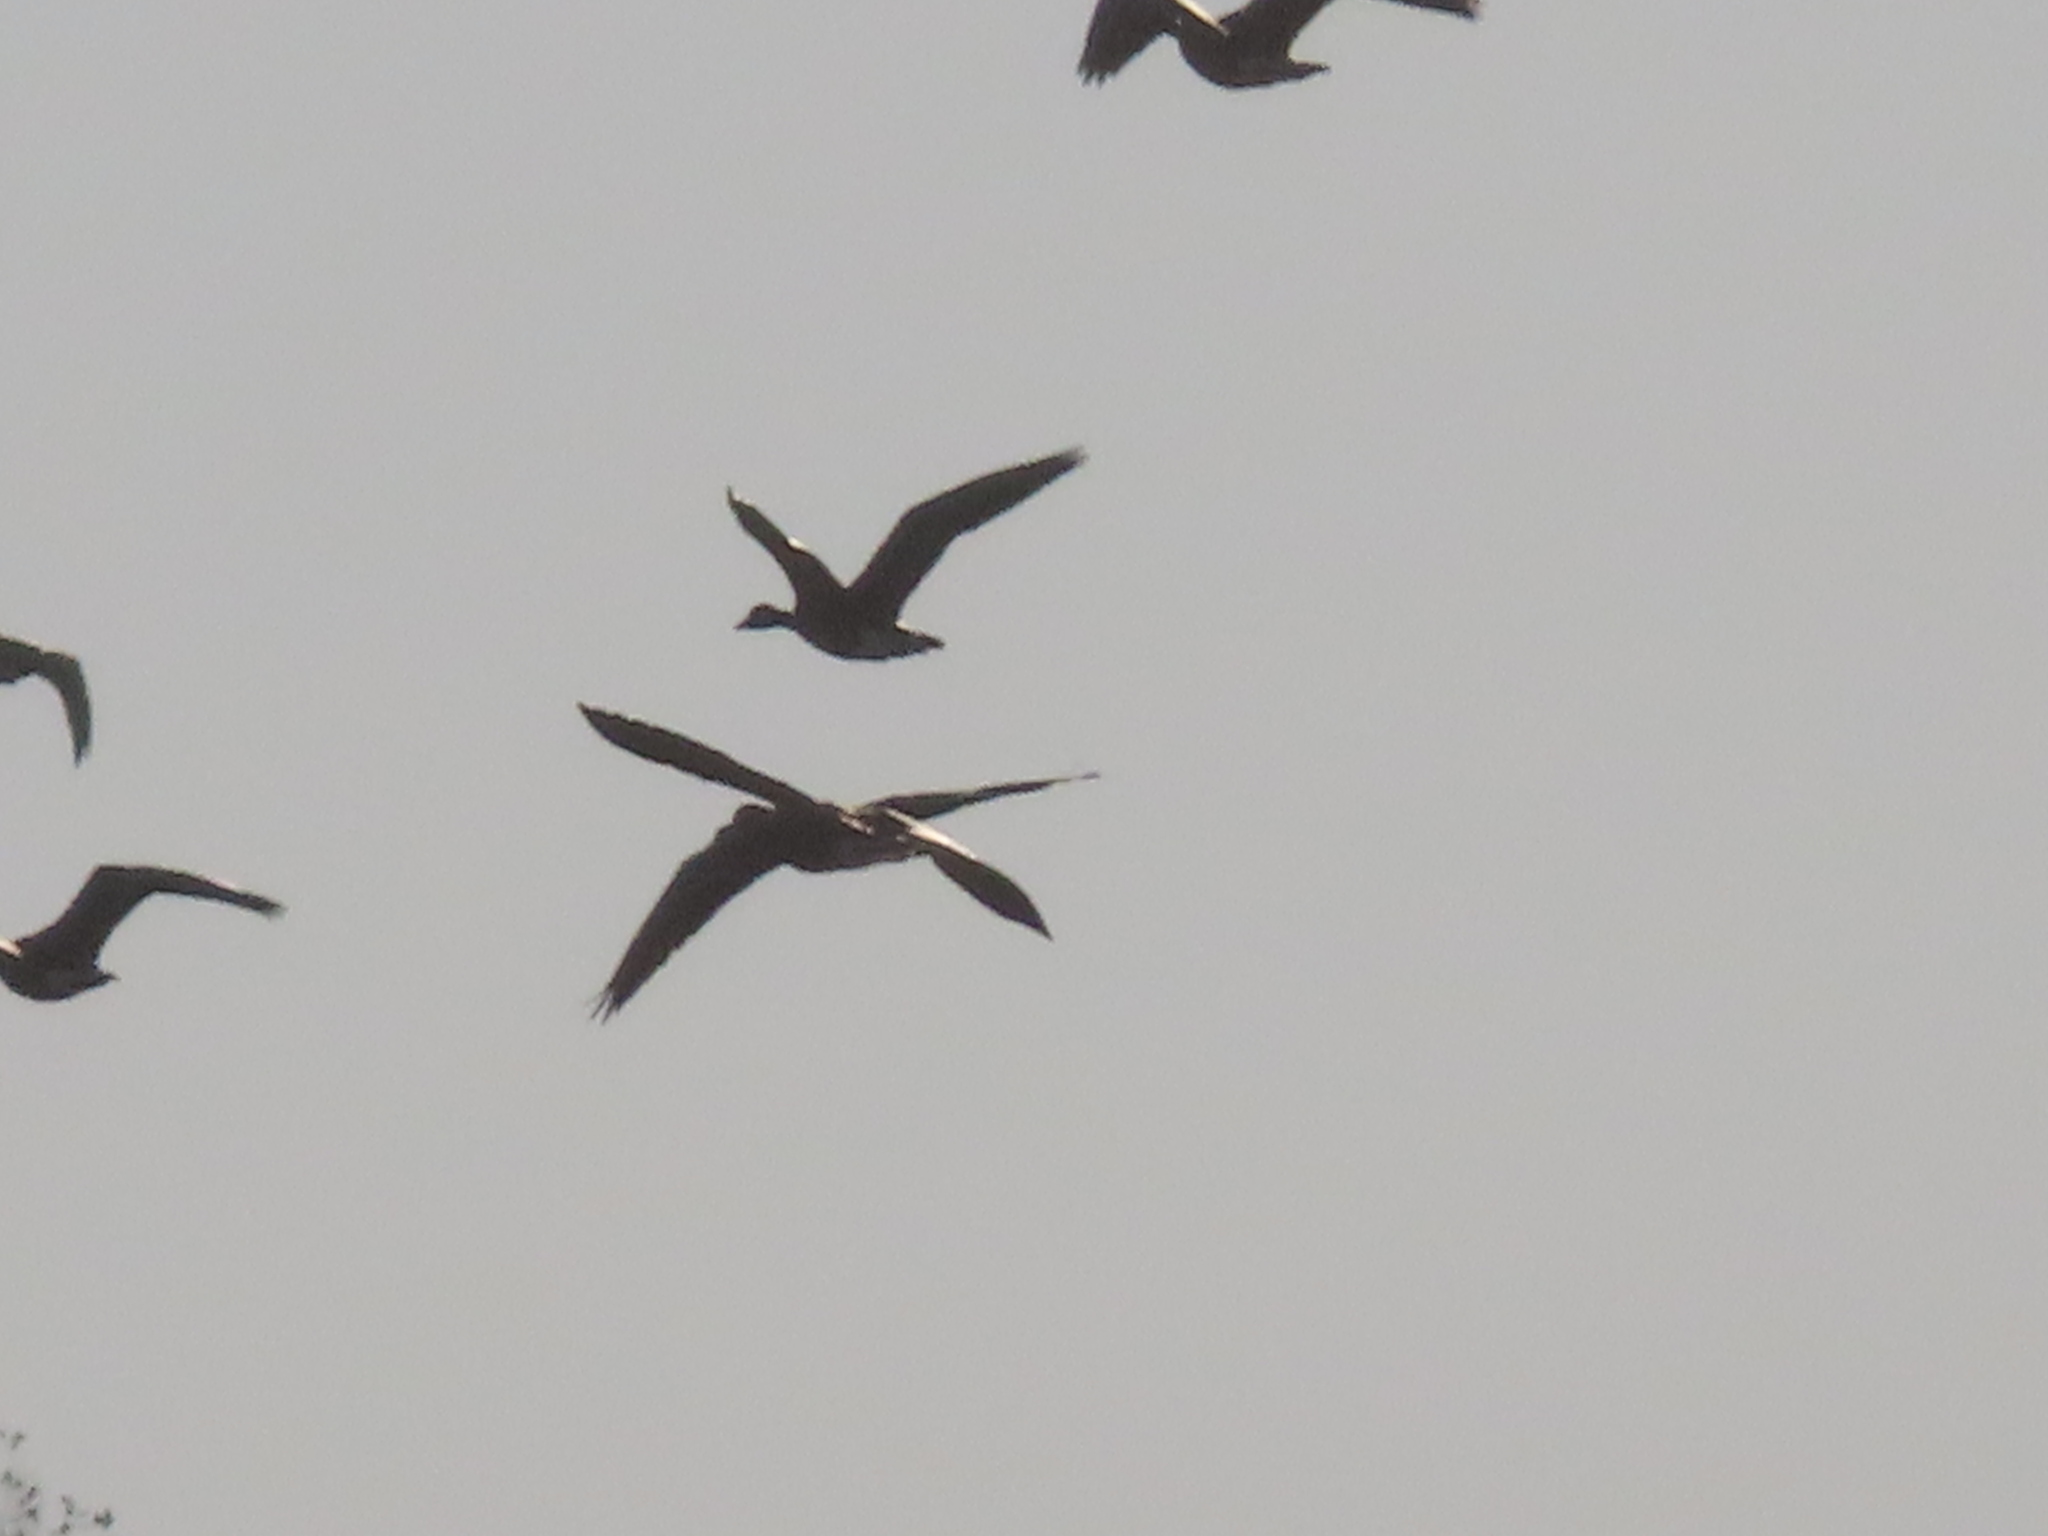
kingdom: Animalia
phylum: Chordata
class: Aves
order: Anseriformes
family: Anatidae
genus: Anser
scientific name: Anser caerulescens
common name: Snow goose
